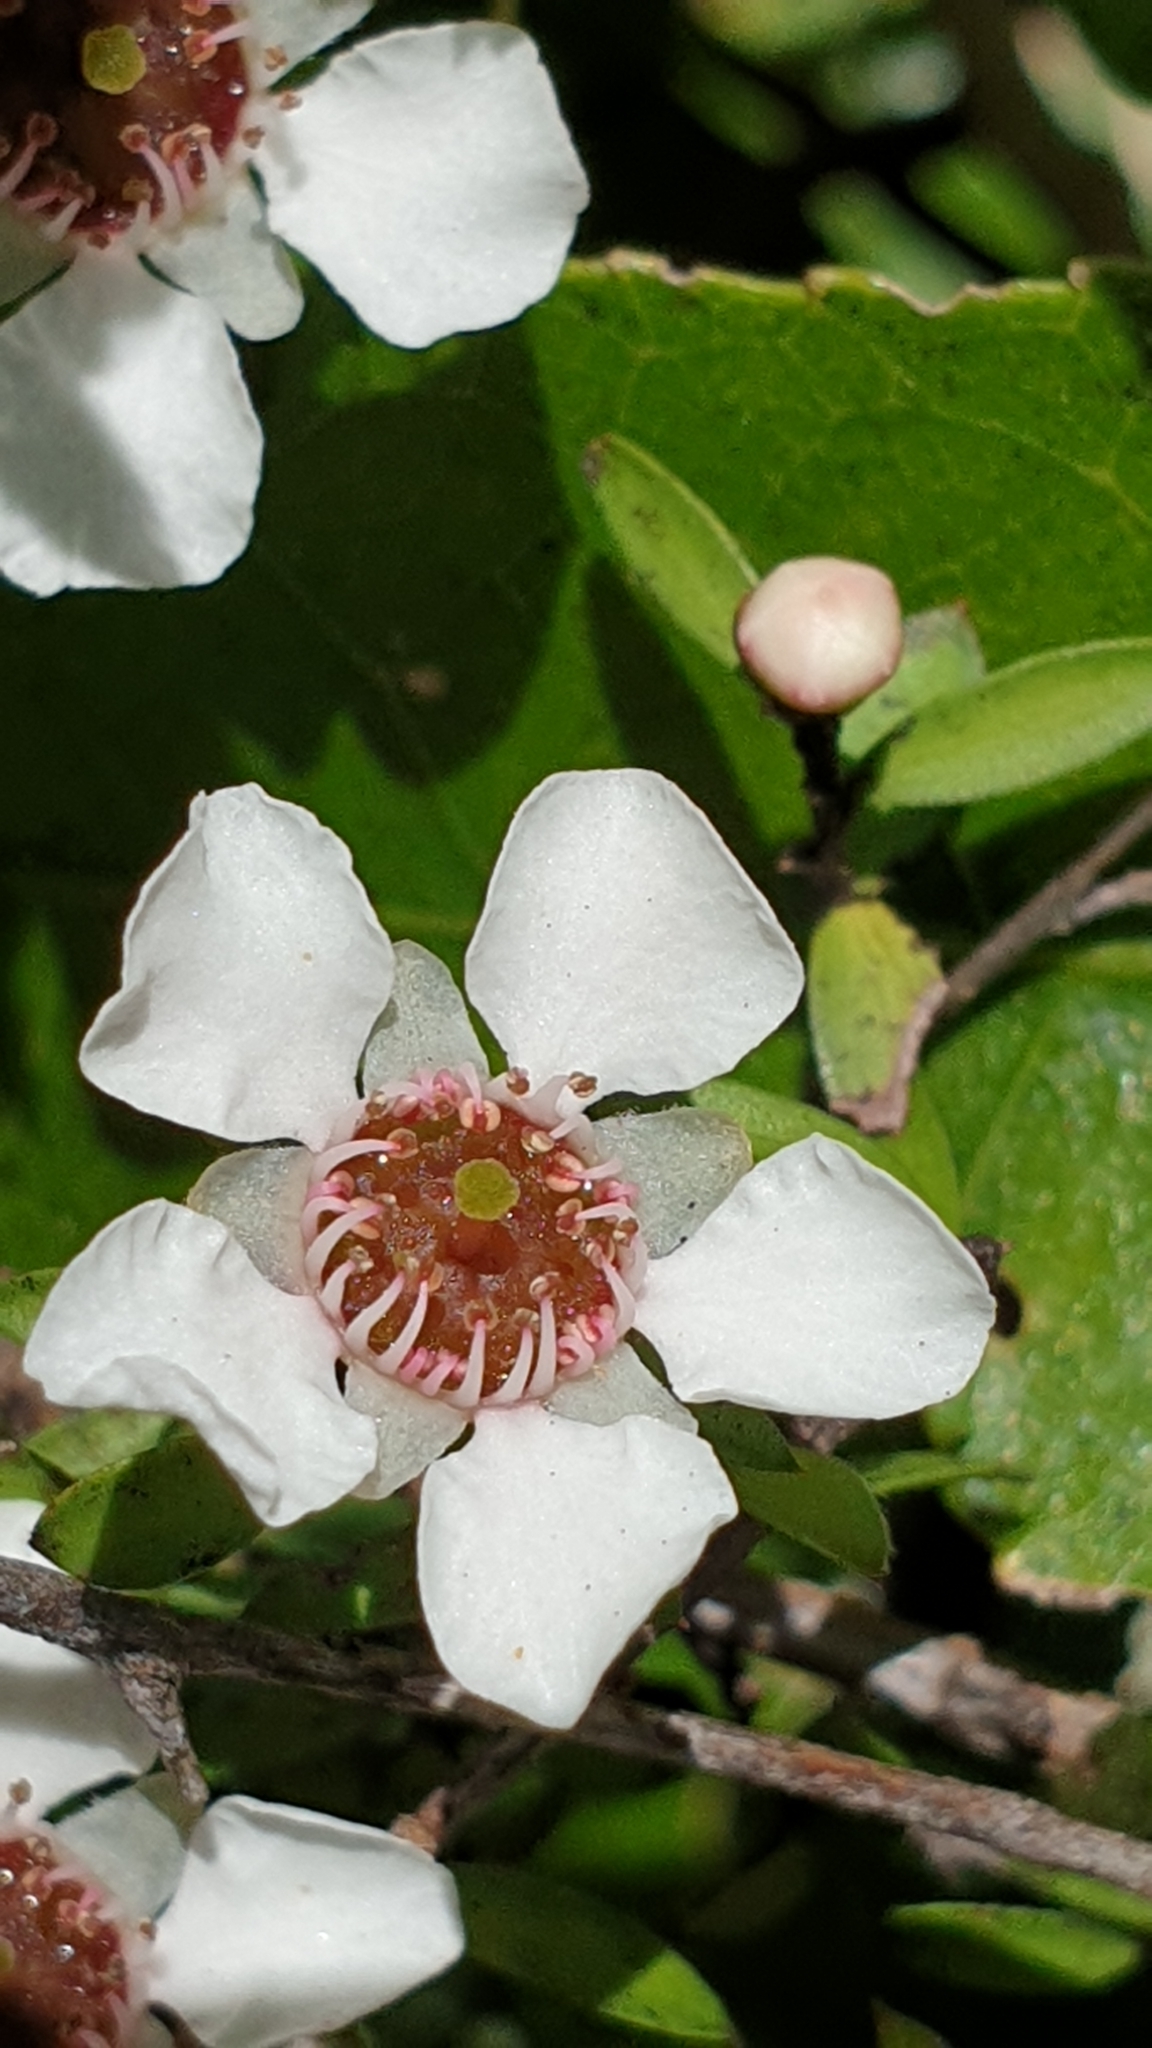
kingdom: Plantae
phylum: Tracheophyta
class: Magnoliopsida
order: Myrtales
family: Myrtaceae
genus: Leptospermum
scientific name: Leptospermum scoparium
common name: Broom tea-tree
